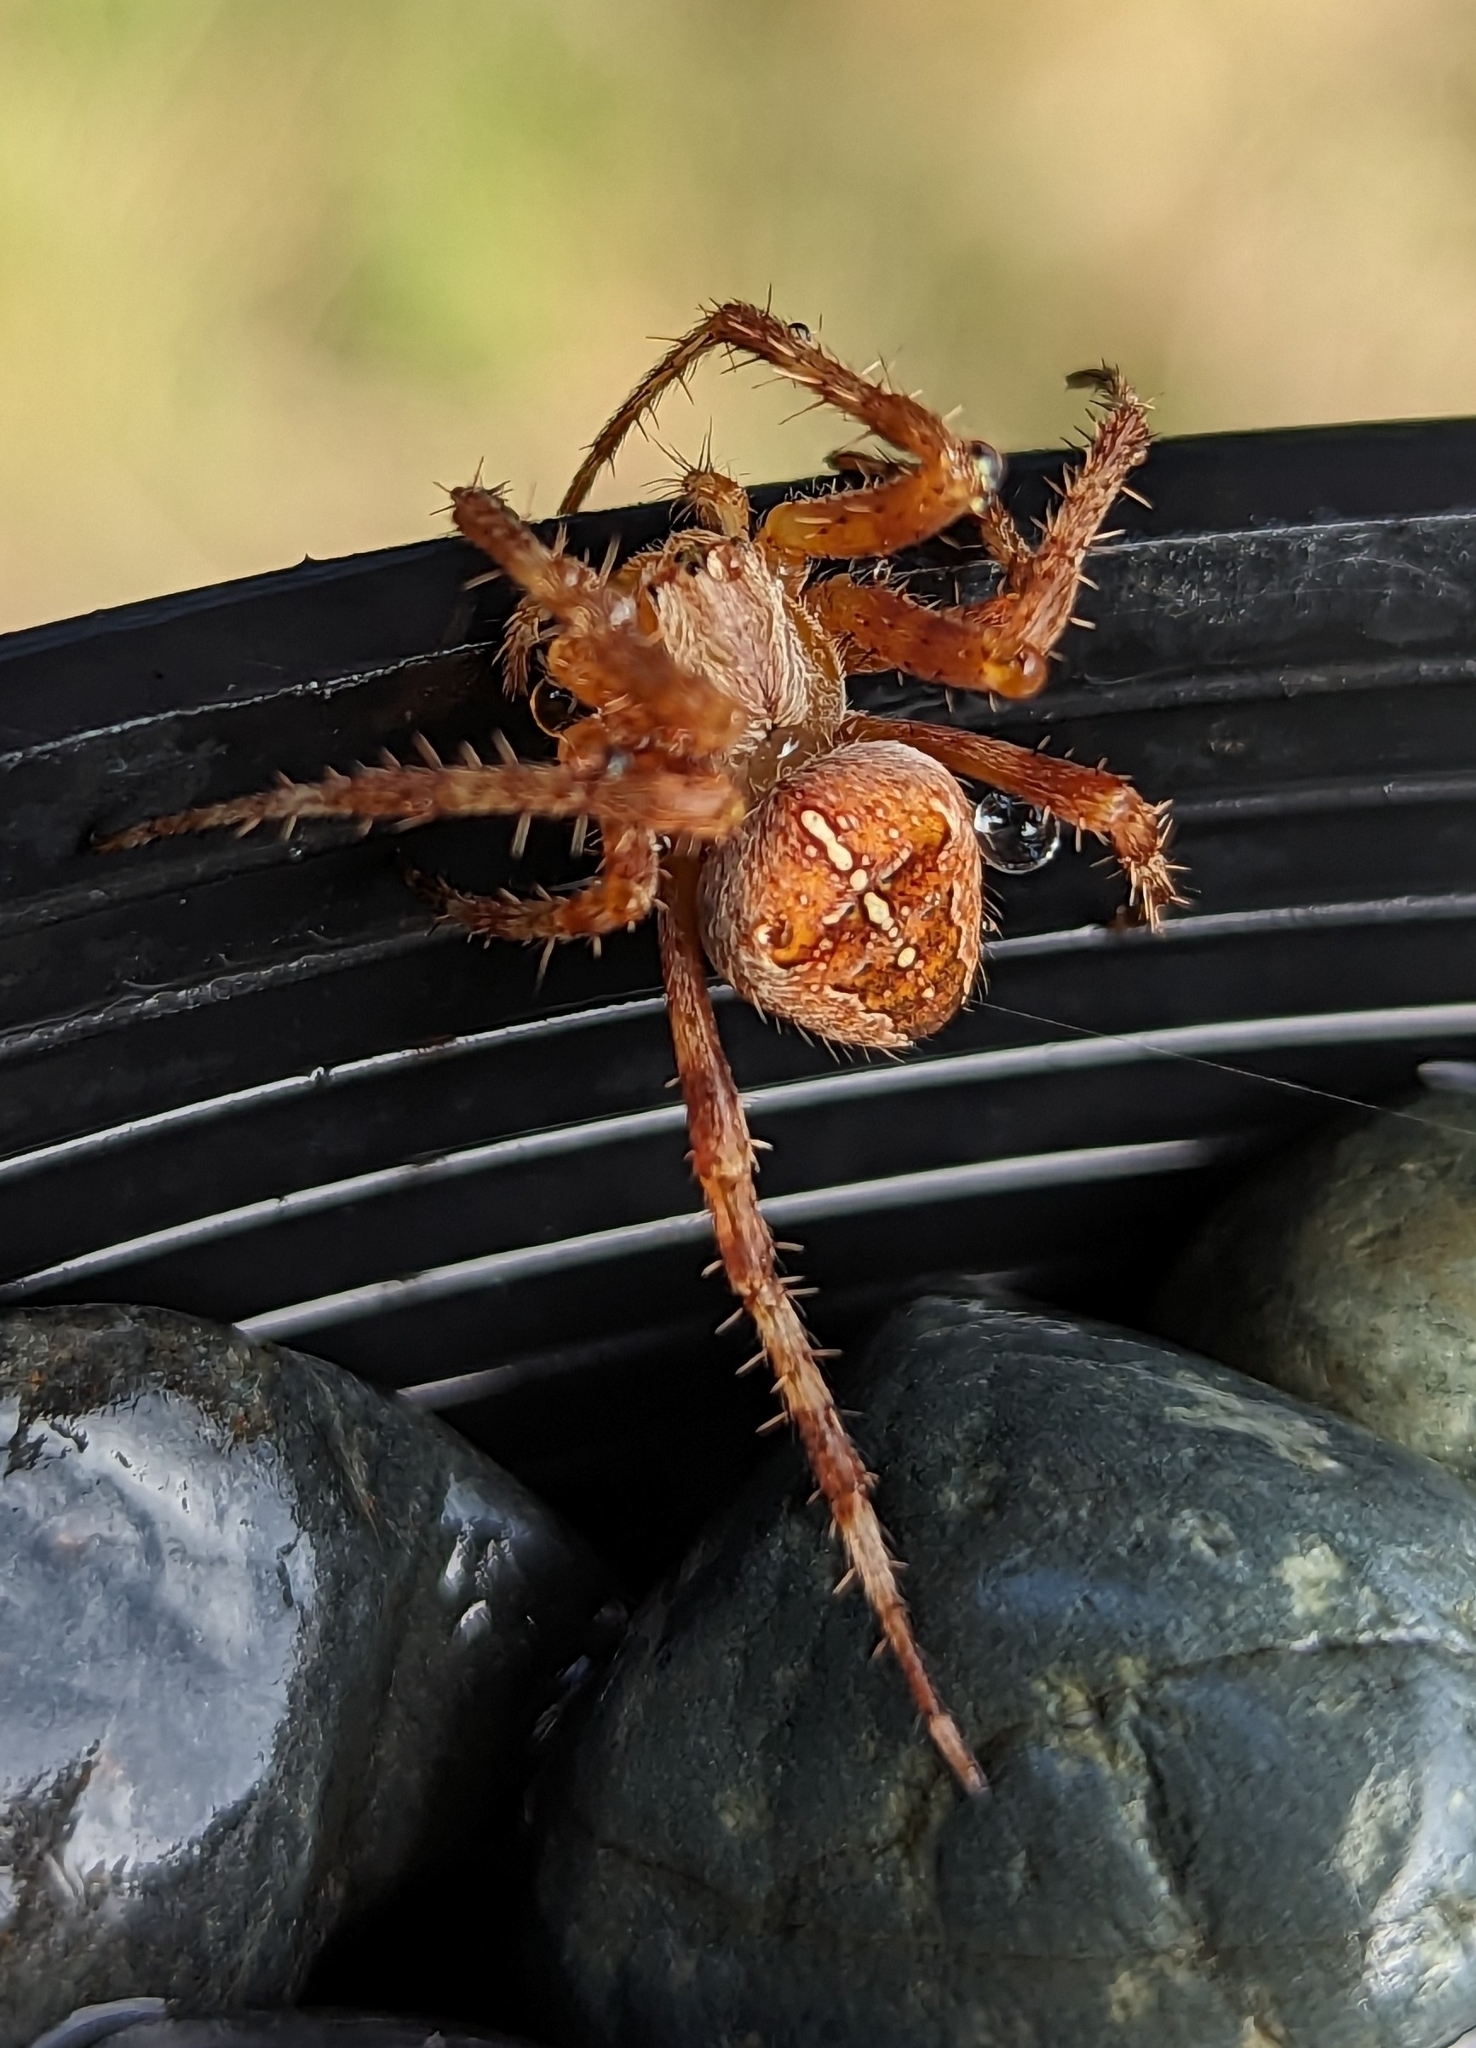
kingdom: Animalia
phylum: Arthropoda
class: Arachnida
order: Araneae
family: Araneidae
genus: Araneus
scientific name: Araneus diadematus
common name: Cross orbweaver
